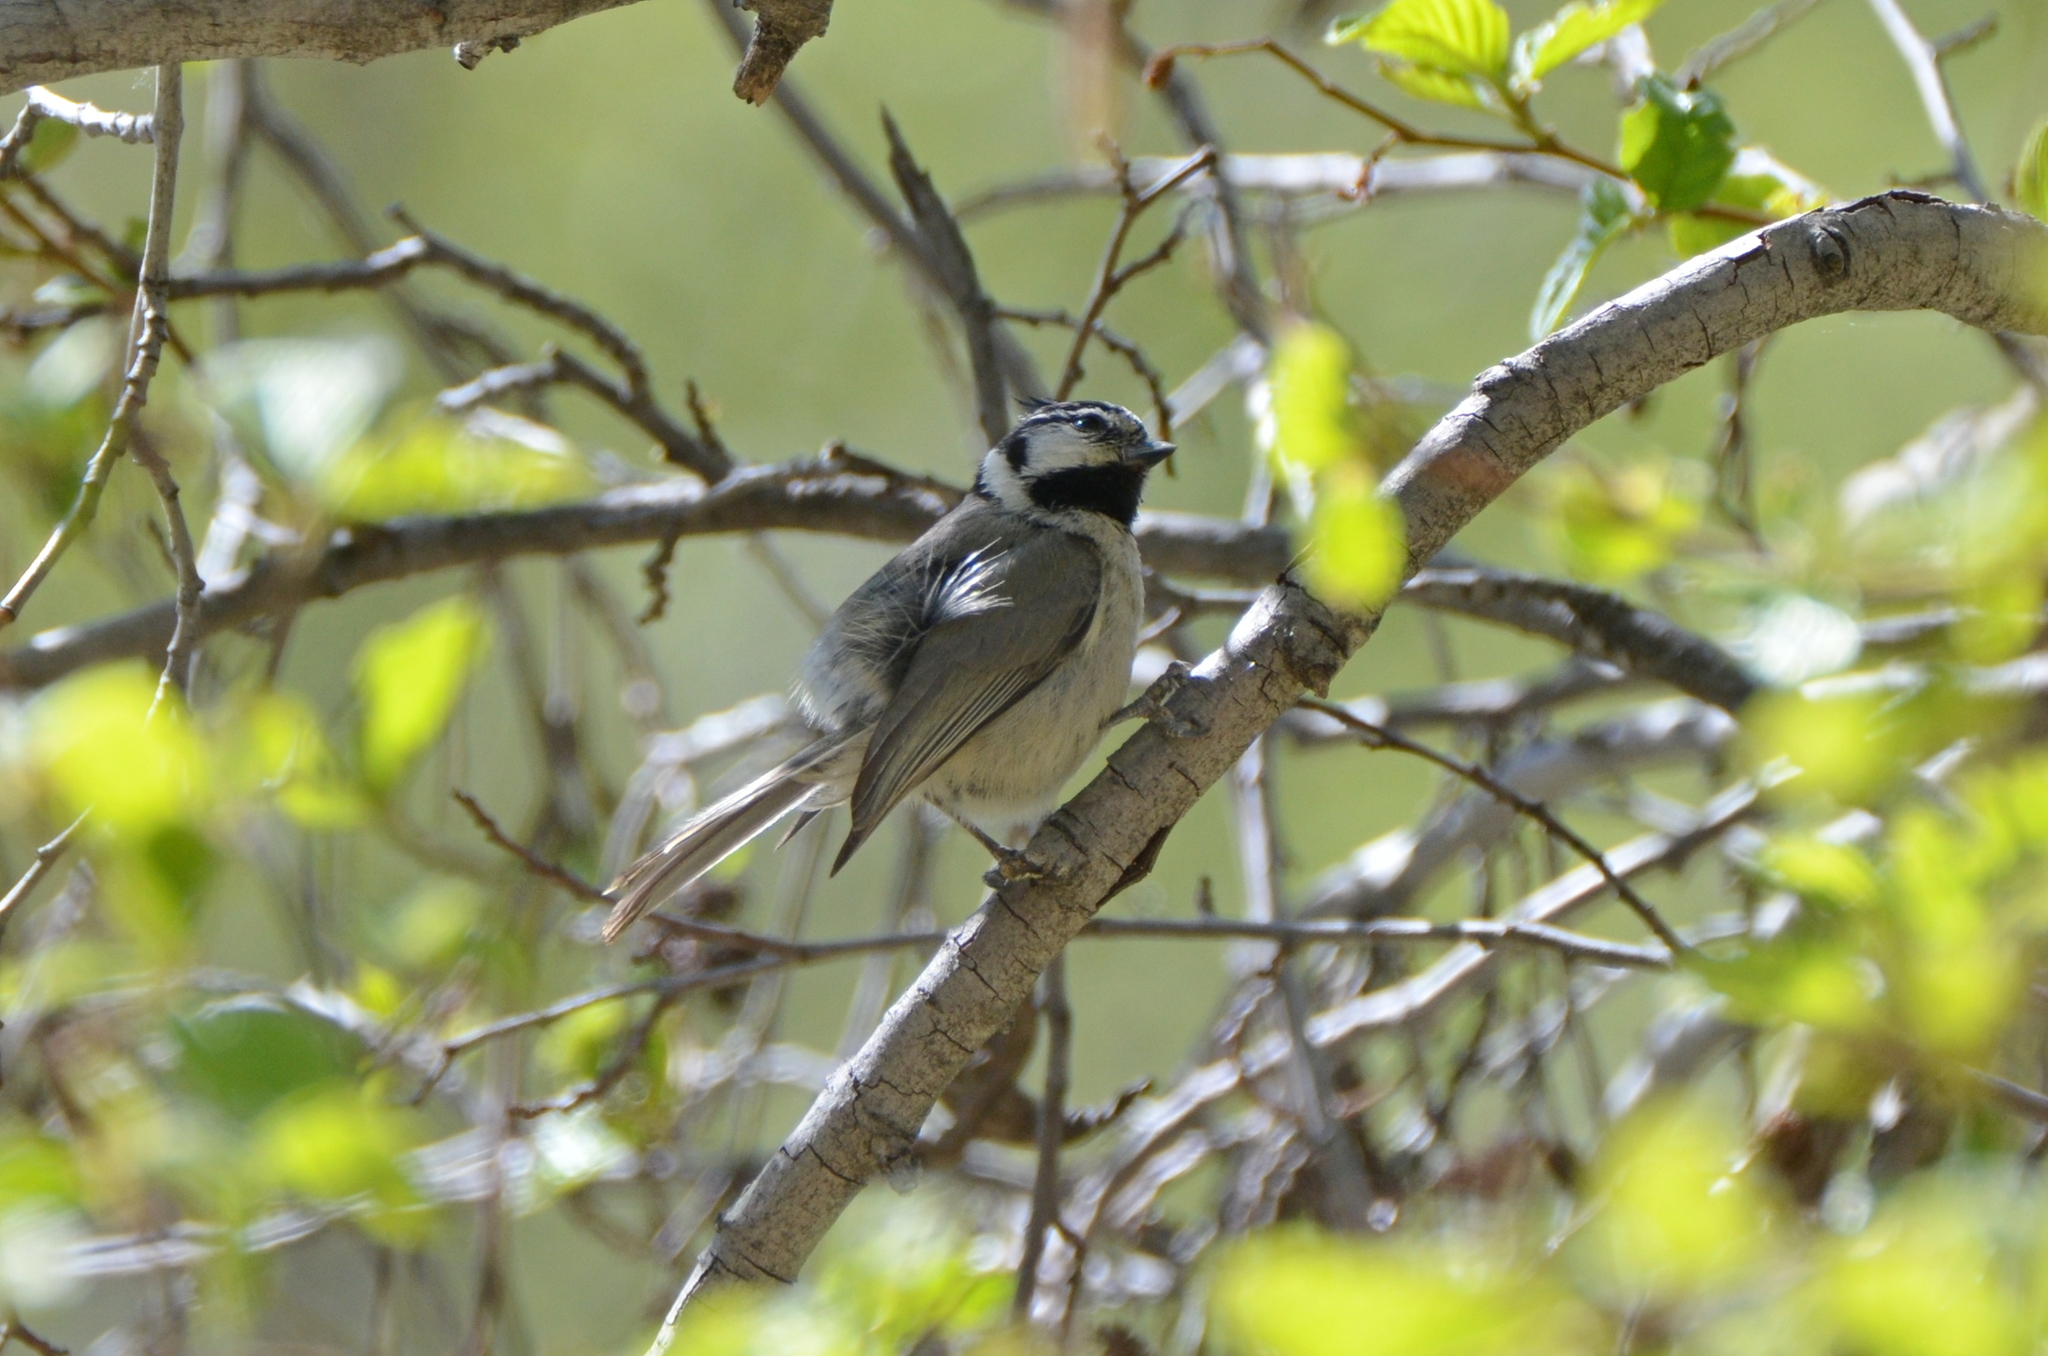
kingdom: Animalia
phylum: Chordata
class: Aves
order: Passeriformes
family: Paridae
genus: Baeolophus
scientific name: Baeolophus wollweberi
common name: Bridled titmouse
